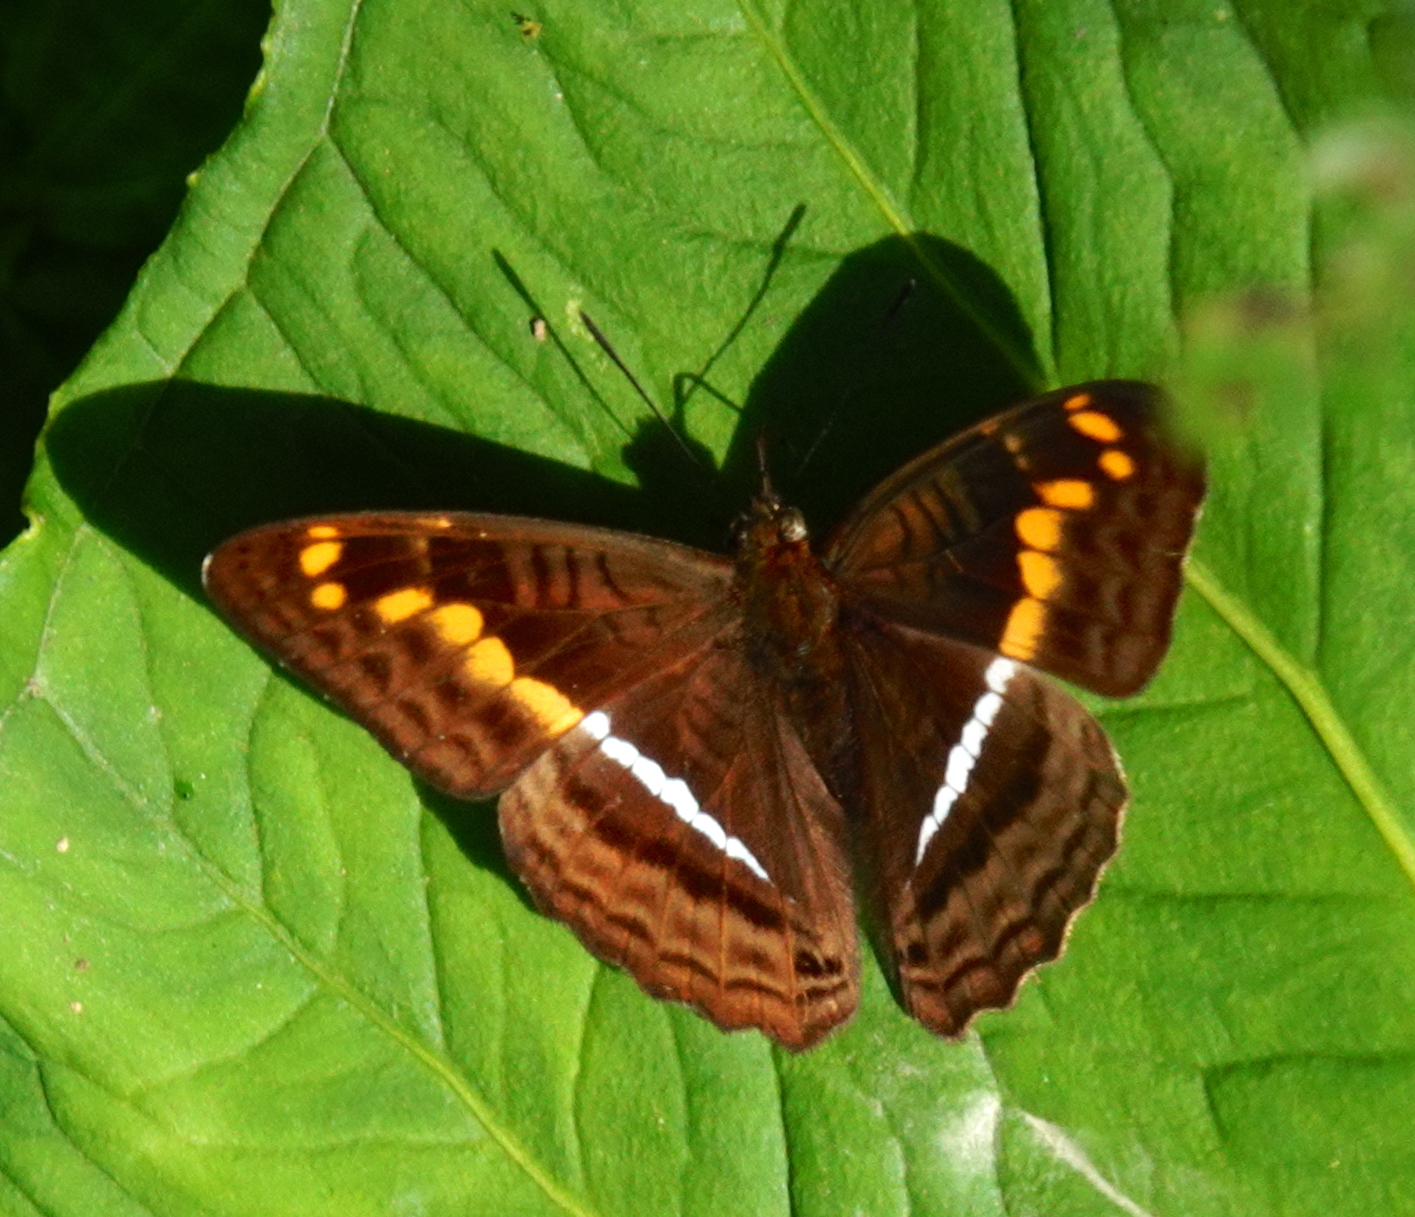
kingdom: Animalia
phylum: Arthropoda
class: Insecta
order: Lepidoptera
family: Nymphalidae
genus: Limenitis
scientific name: Limenitis olynthia
